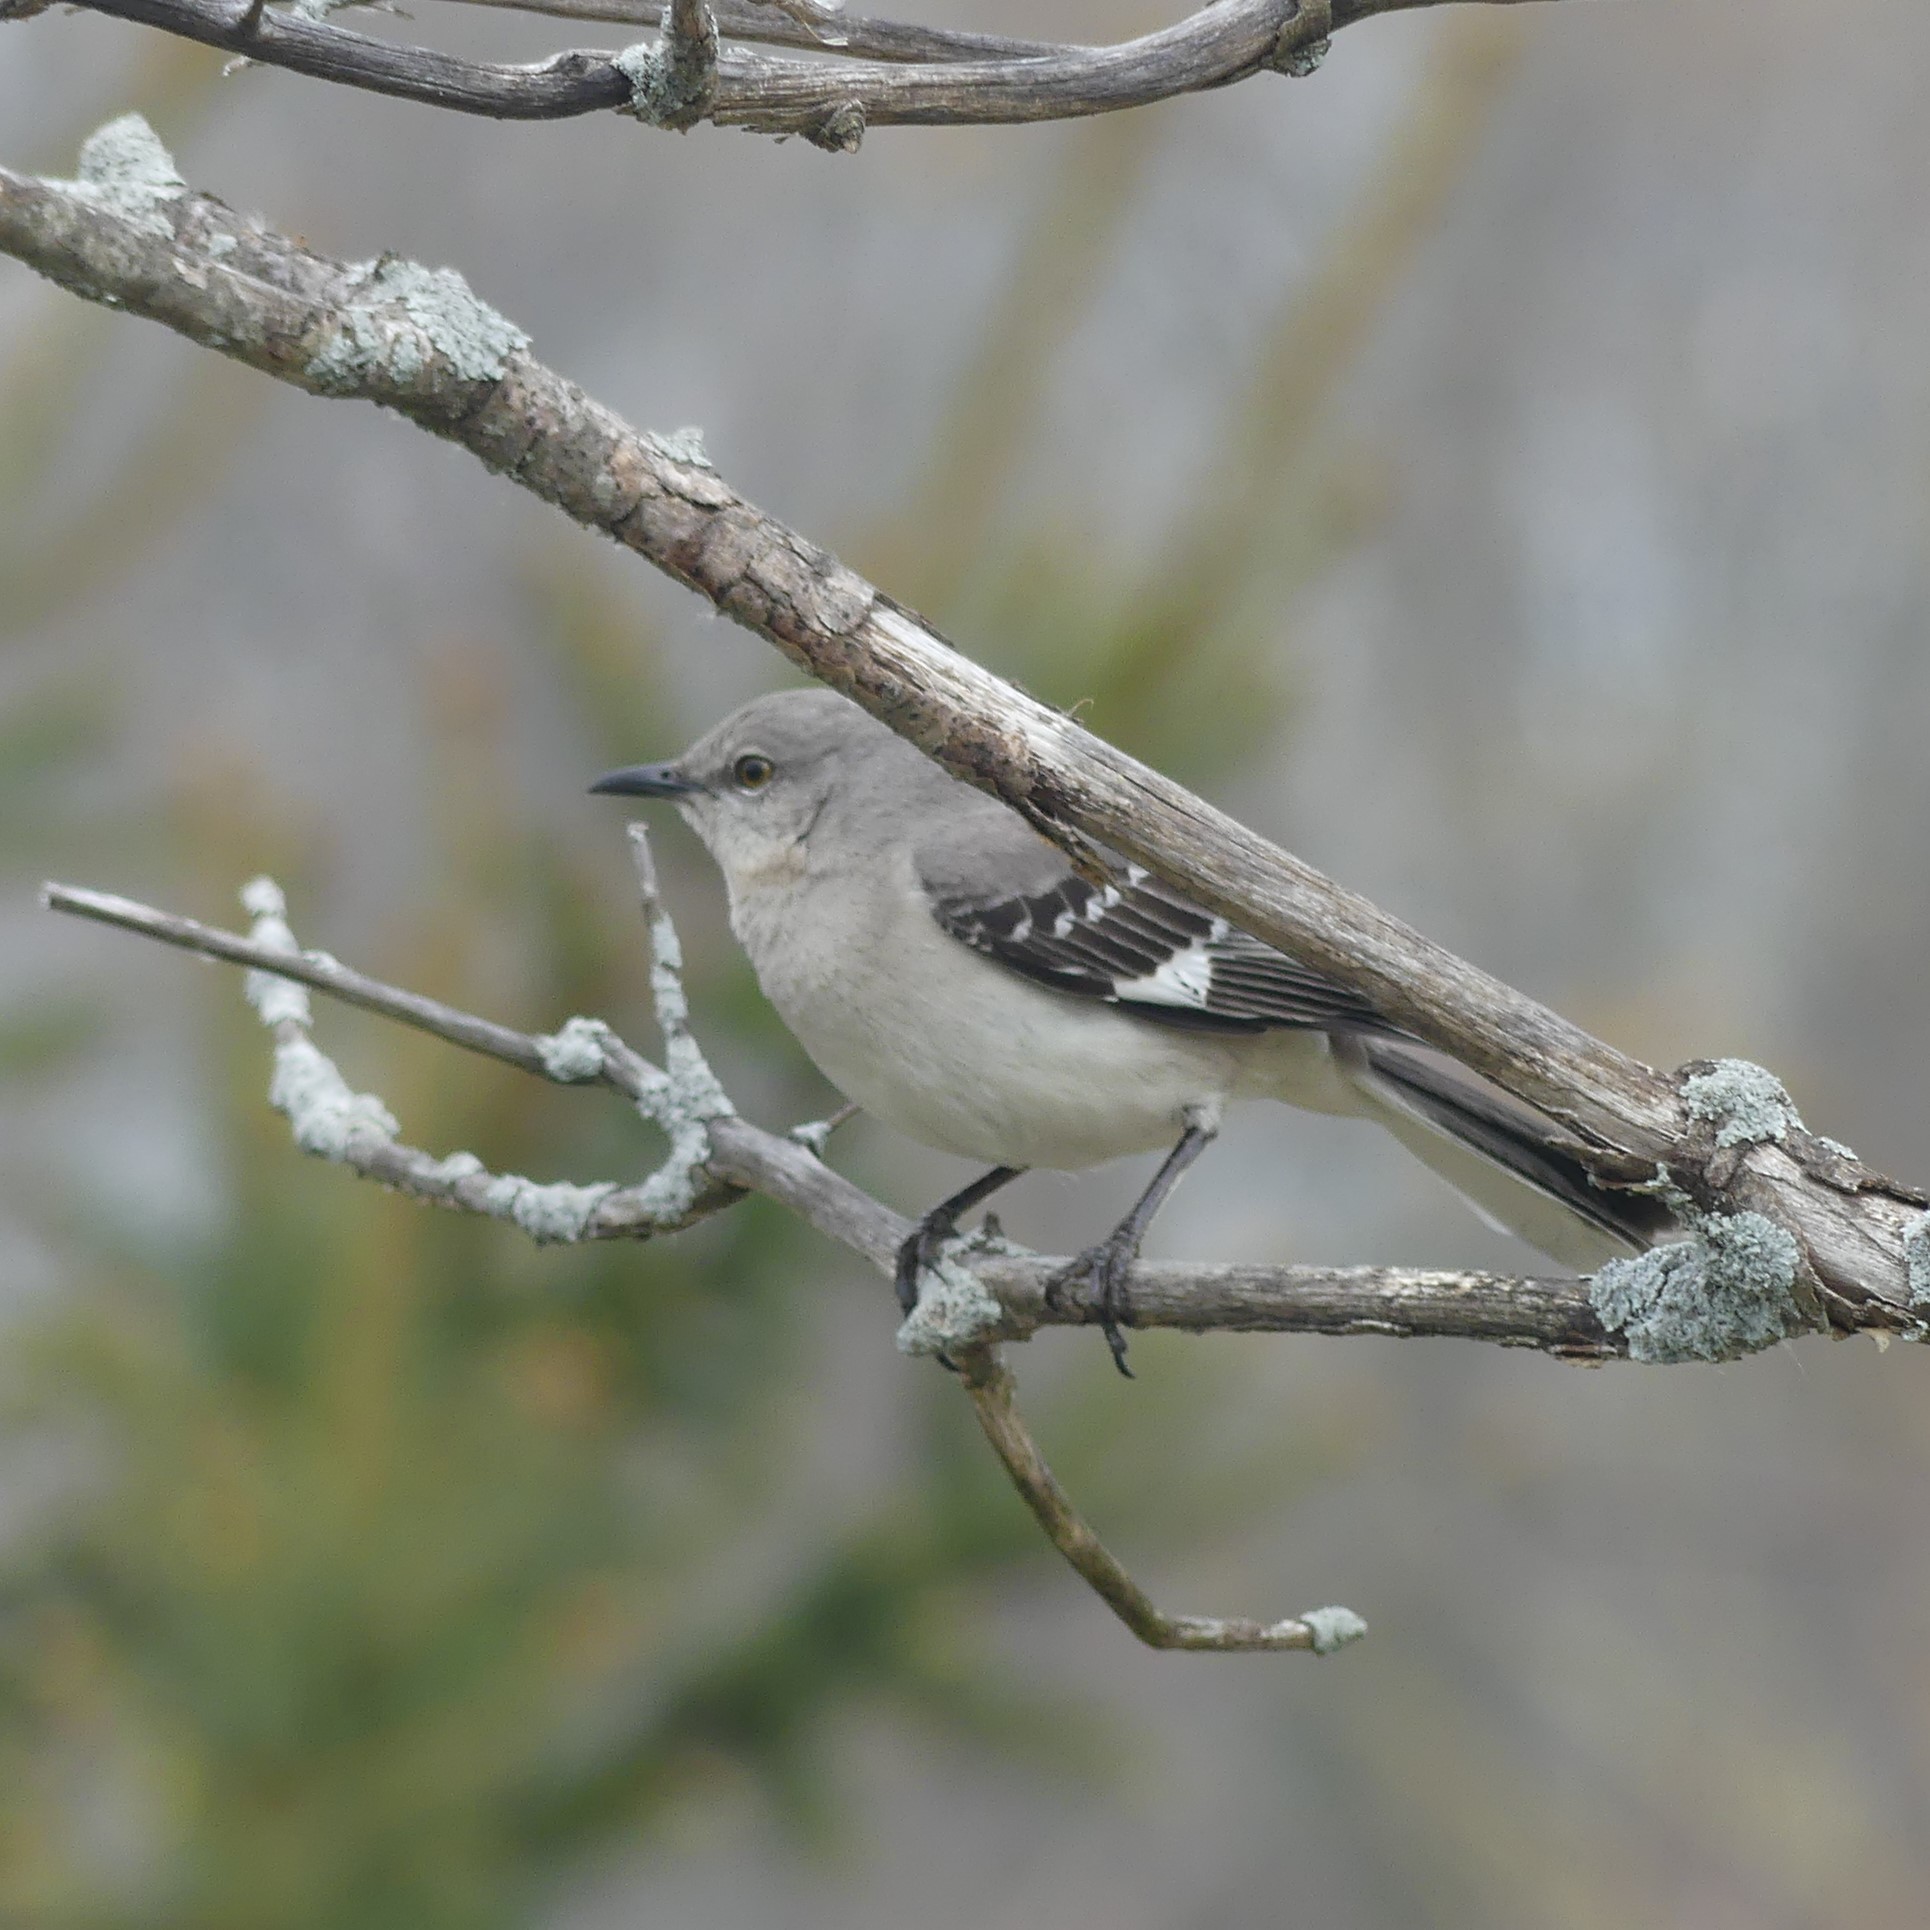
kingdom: Animalia
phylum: Chordata
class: Aves
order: Passeriformes
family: Mimidae
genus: Mimus
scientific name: Mimus polyglottos
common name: Northern mockingbird
